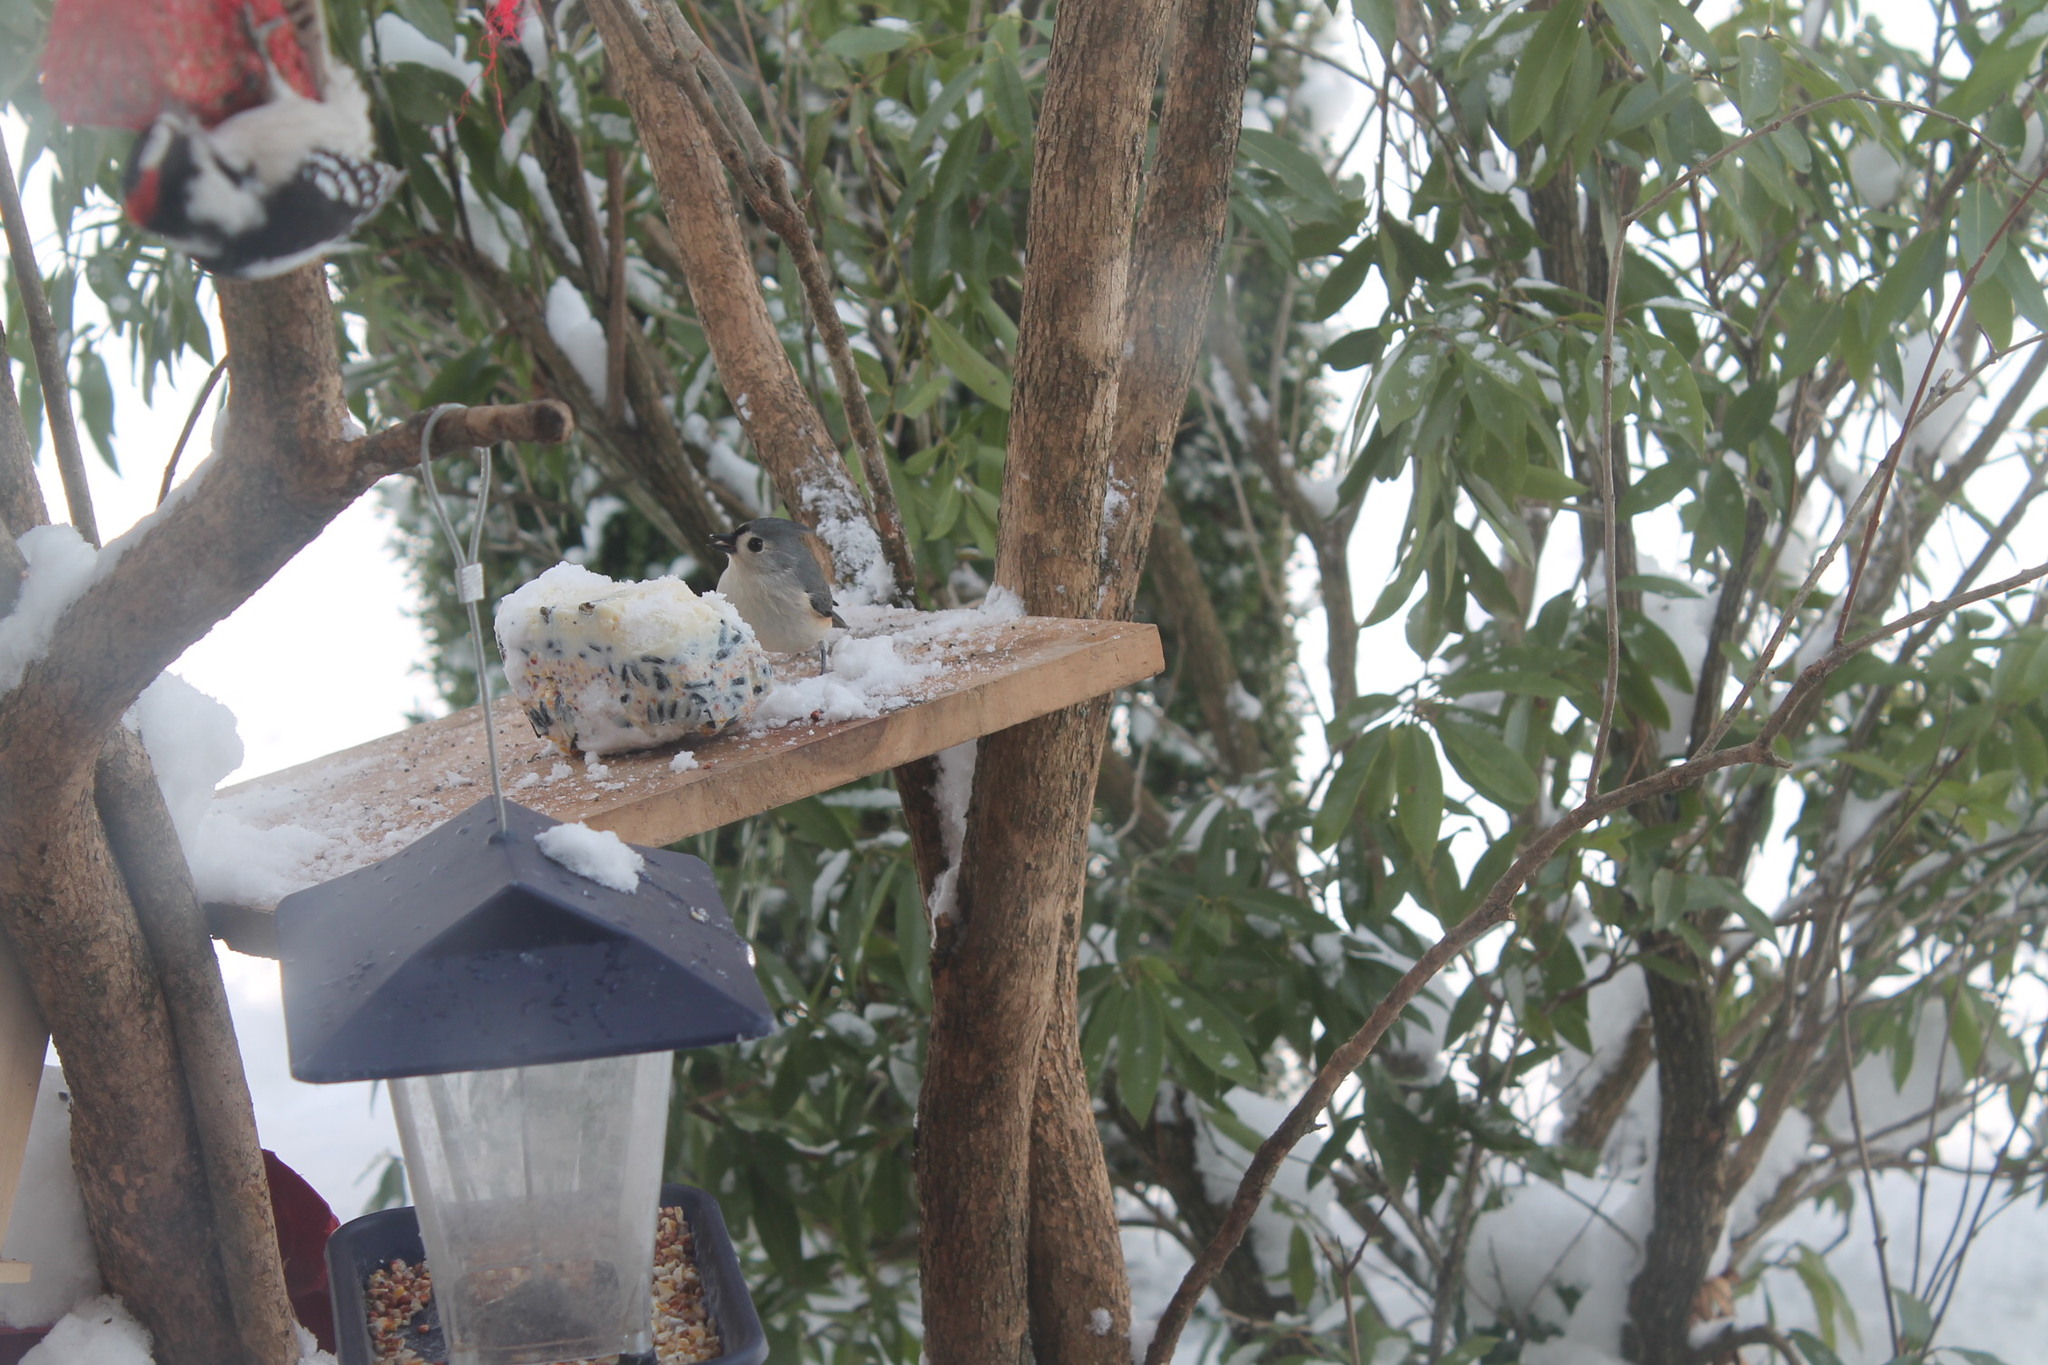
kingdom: Animalia
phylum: Chordata
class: Aves
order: Passeriformes
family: Paridae
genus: Baeolophus
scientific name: Baeolophus bicolor
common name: Tufted titmouse
